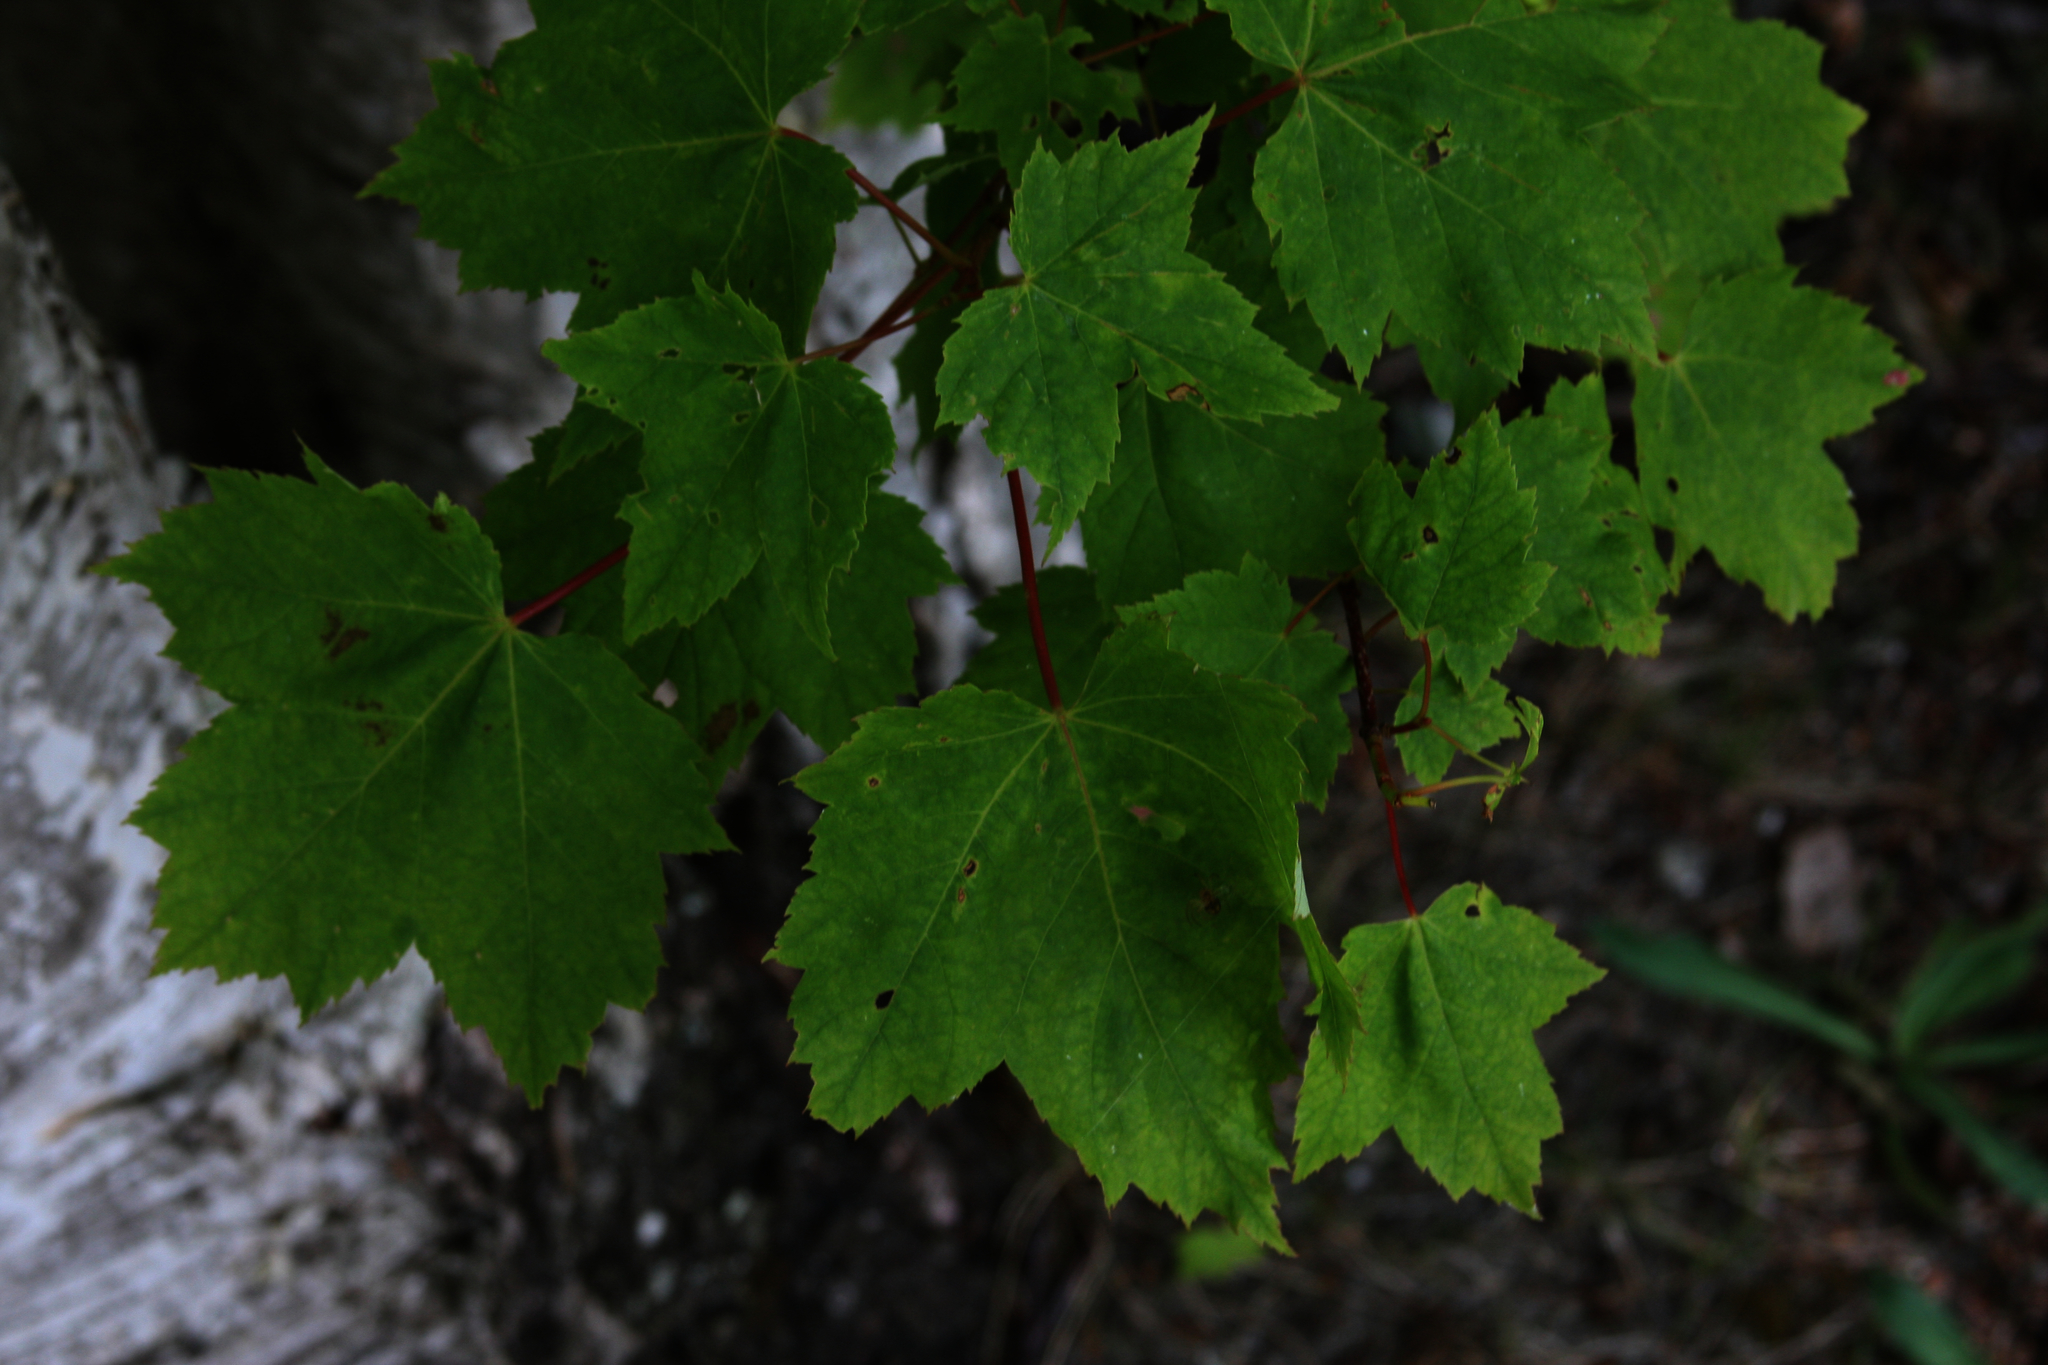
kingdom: Plantae
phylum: Tracheophyta
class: Magnoliopsida
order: Sapindales
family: Sapindaceae
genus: Acer
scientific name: Acer rubrum
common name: Red maple
